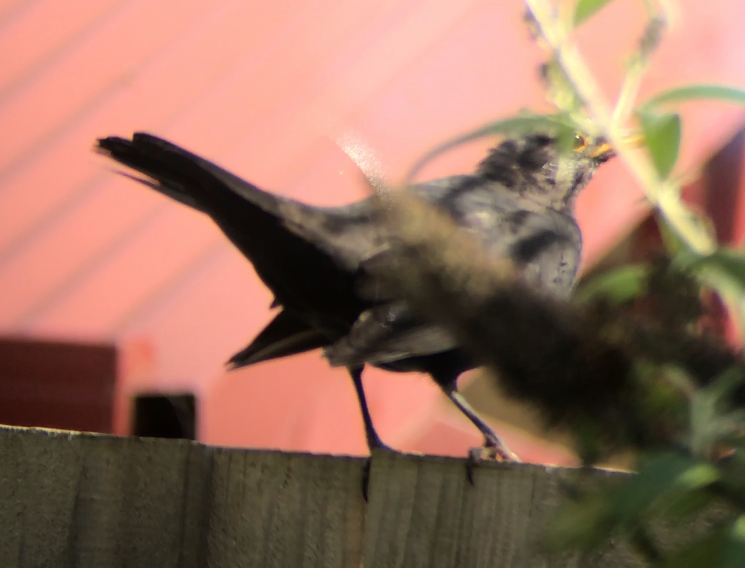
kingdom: Animalia
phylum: Chordata
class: Aves
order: Passeriformes
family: Turdidae
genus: Turdus
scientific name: Turdus merula
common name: Common blackbird
